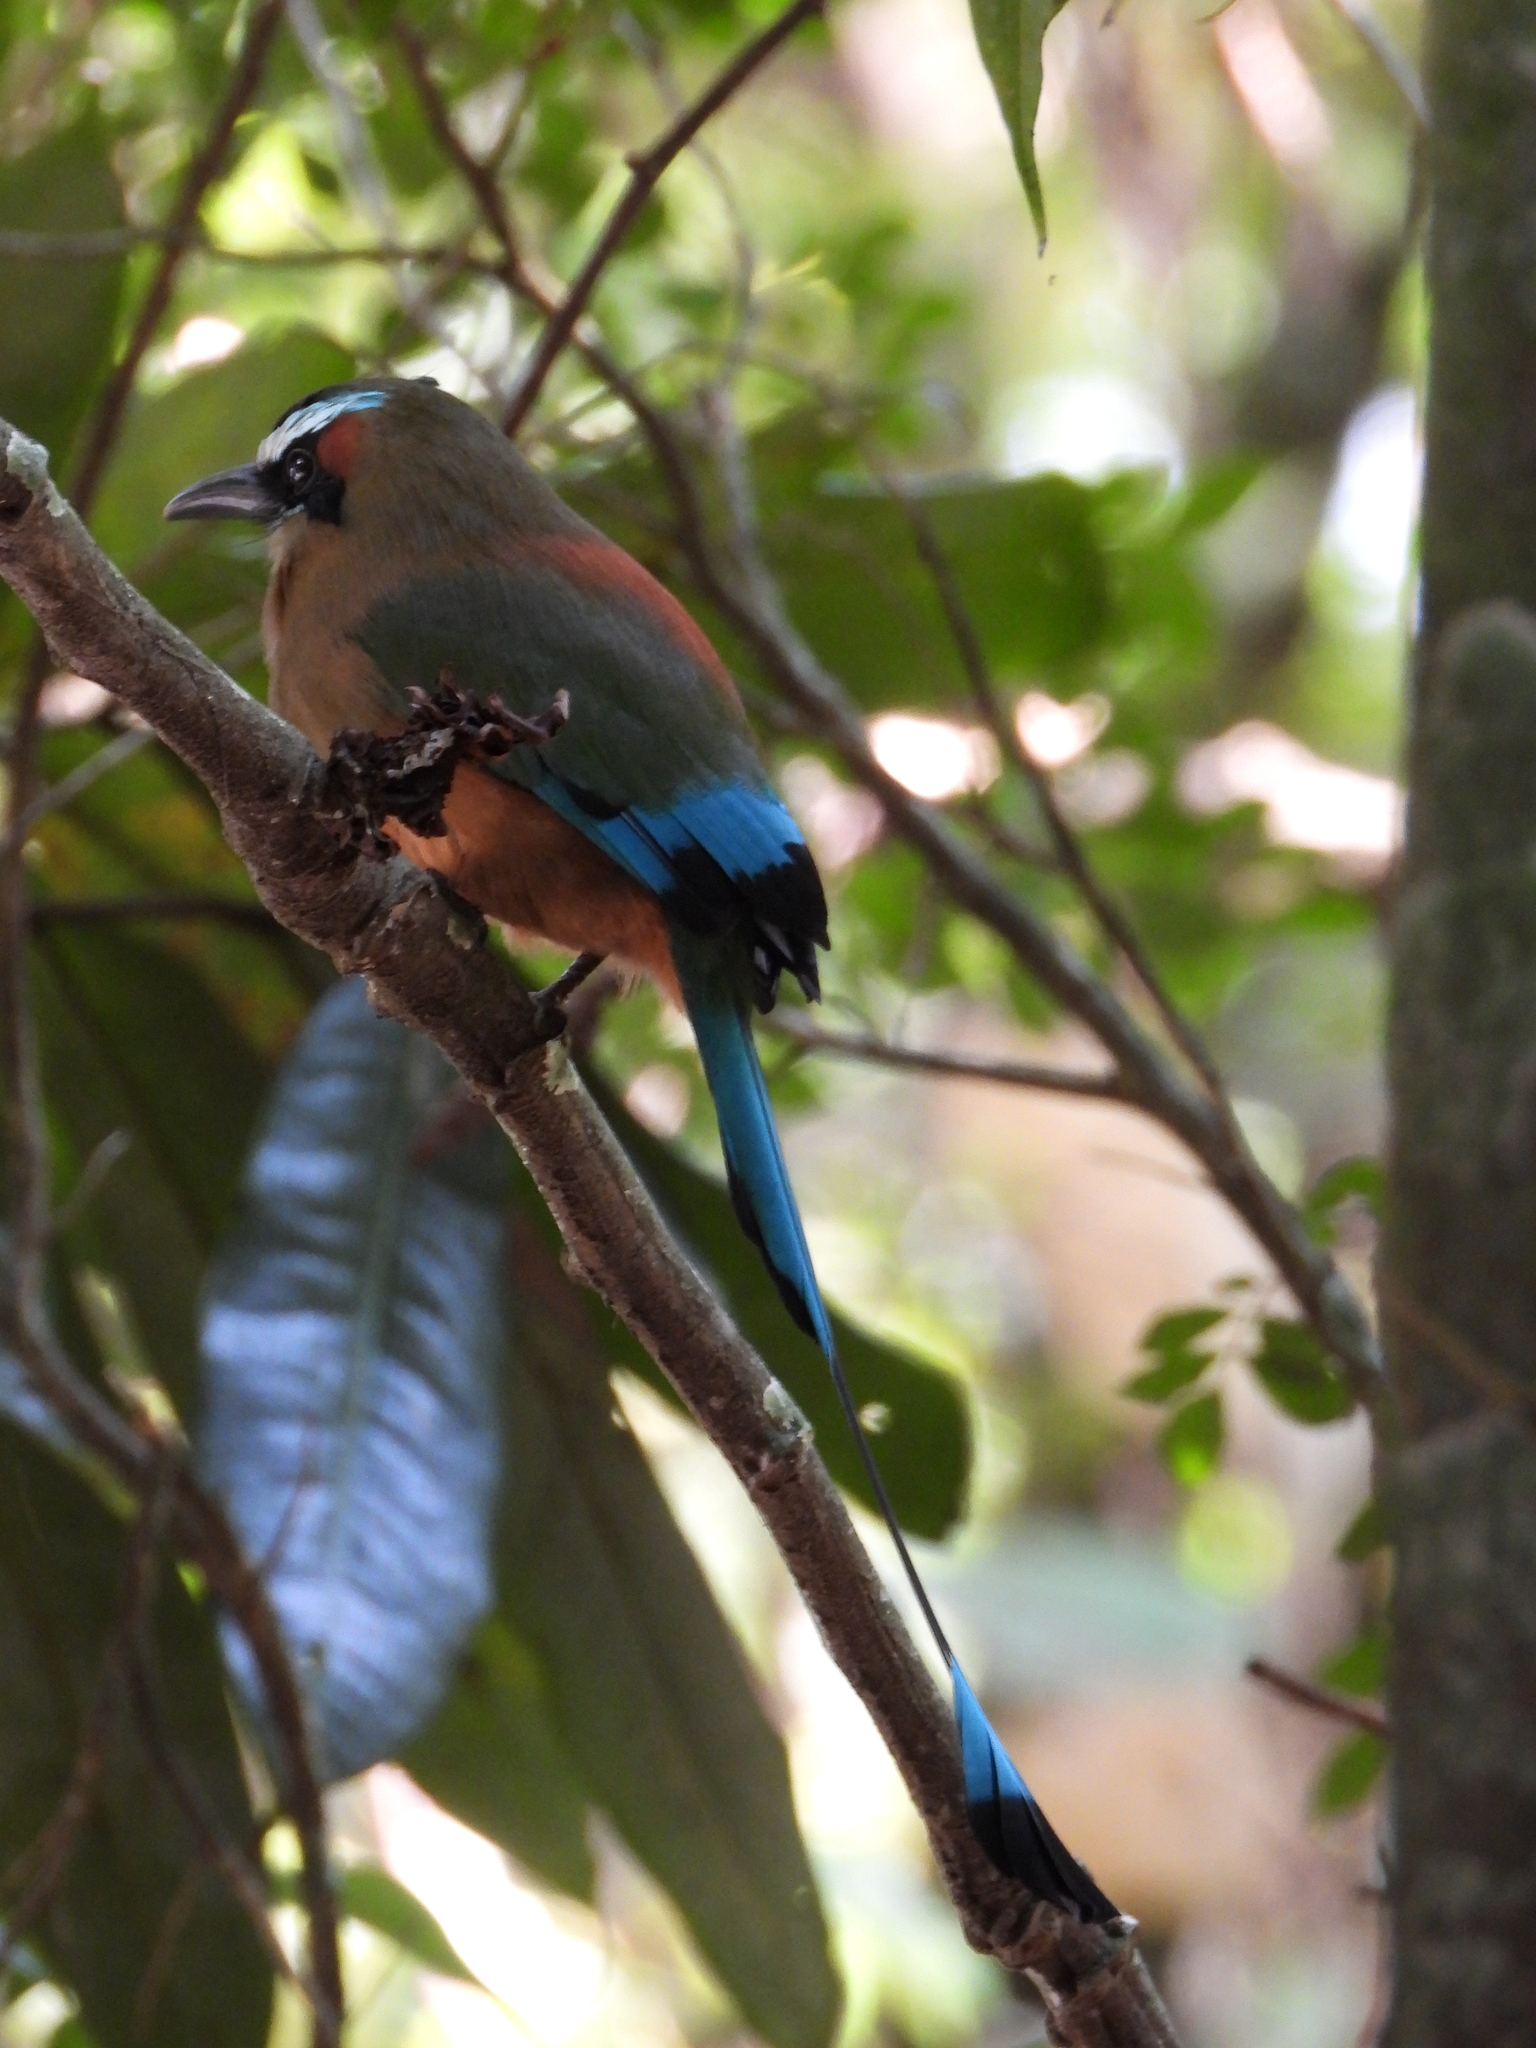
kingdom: Animalia
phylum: Chordata
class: Aves
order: Coraciiformes
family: Momotidae
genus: Eumomota
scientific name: Eumomota superciliosa
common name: Turquoise-browed motmot
